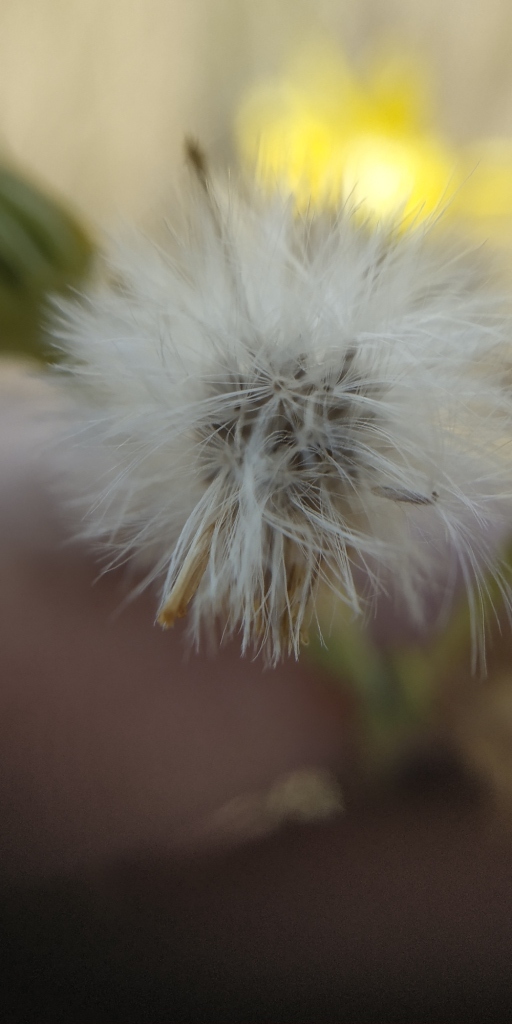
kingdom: Plantae
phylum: Tracheophyta
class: Magnoliopsida
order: Asterales
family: Asteraceae
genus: Jacobaea
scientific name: Jacobaea erucifolia
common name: Hoary ragwort
